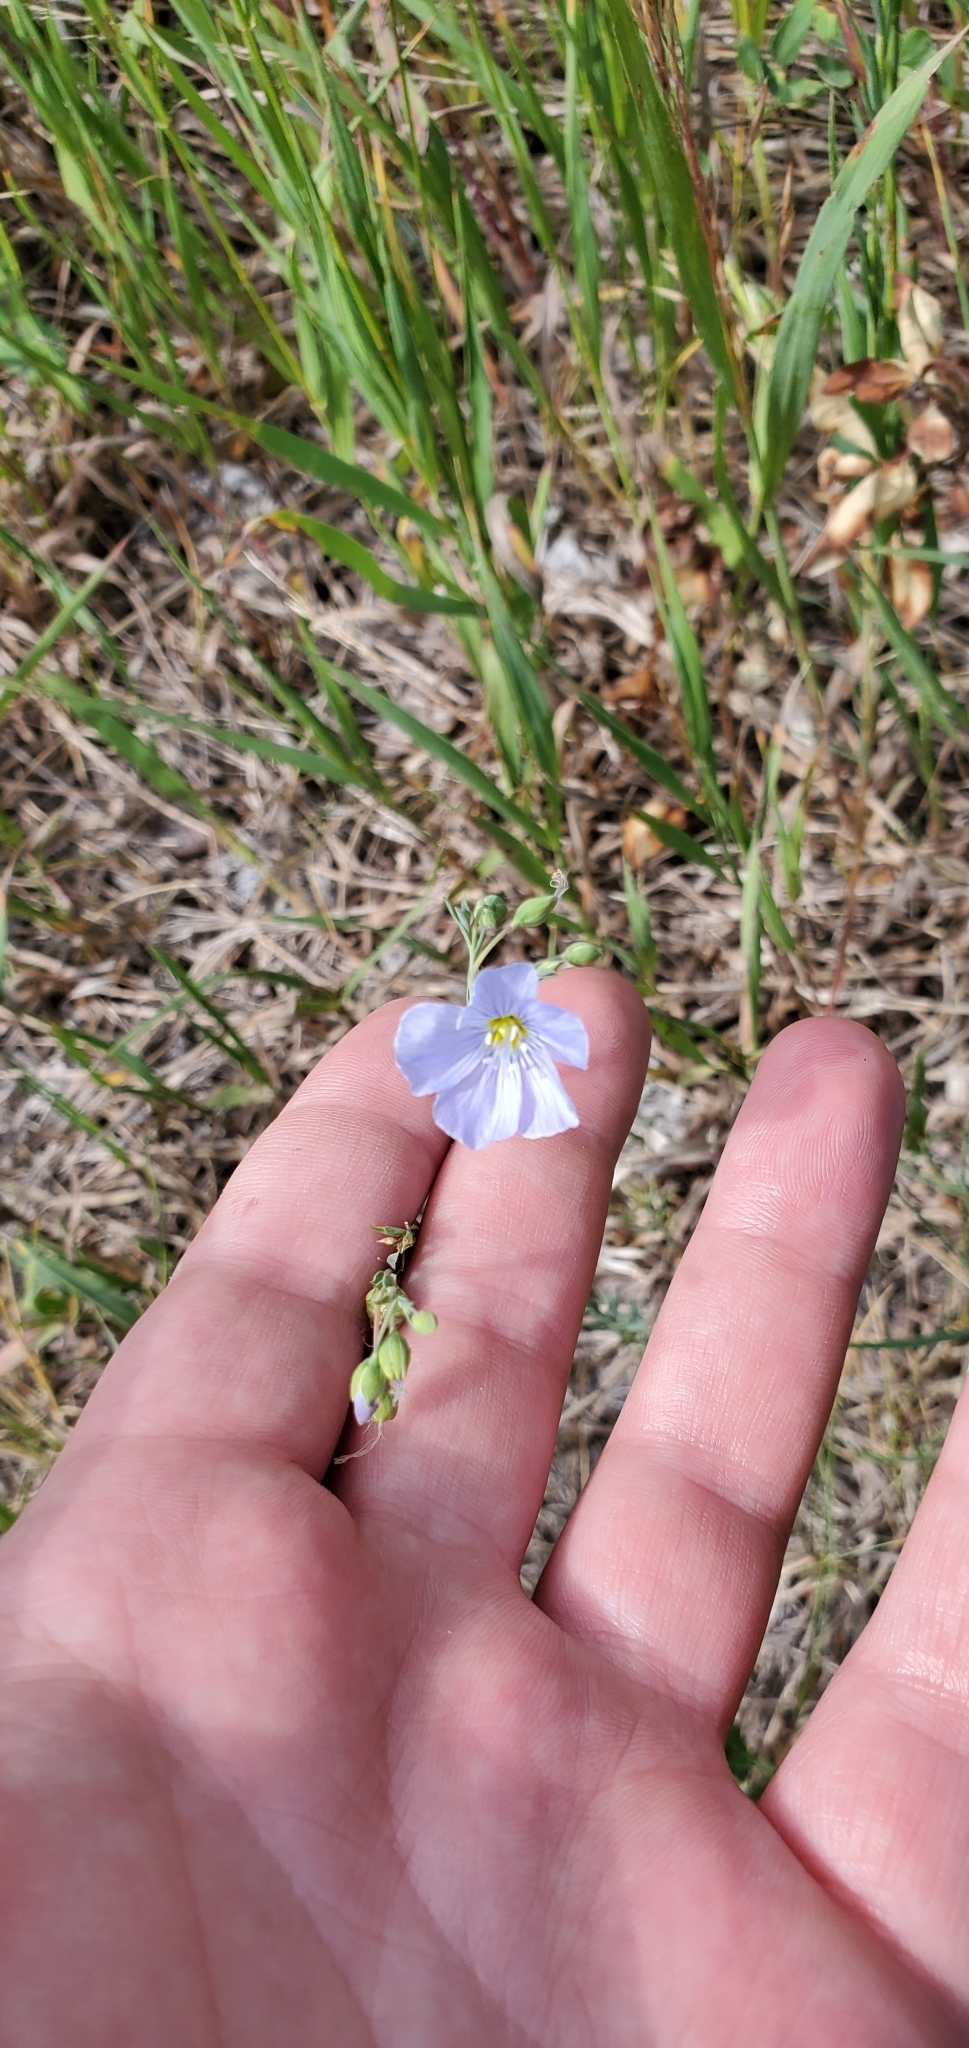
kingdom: Plantae
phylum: Tracheophyta
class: Magnoliopsida
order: Malpighiales
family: Linaceae
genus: Linum
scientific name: Linum lewisii
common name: Prairie flax
